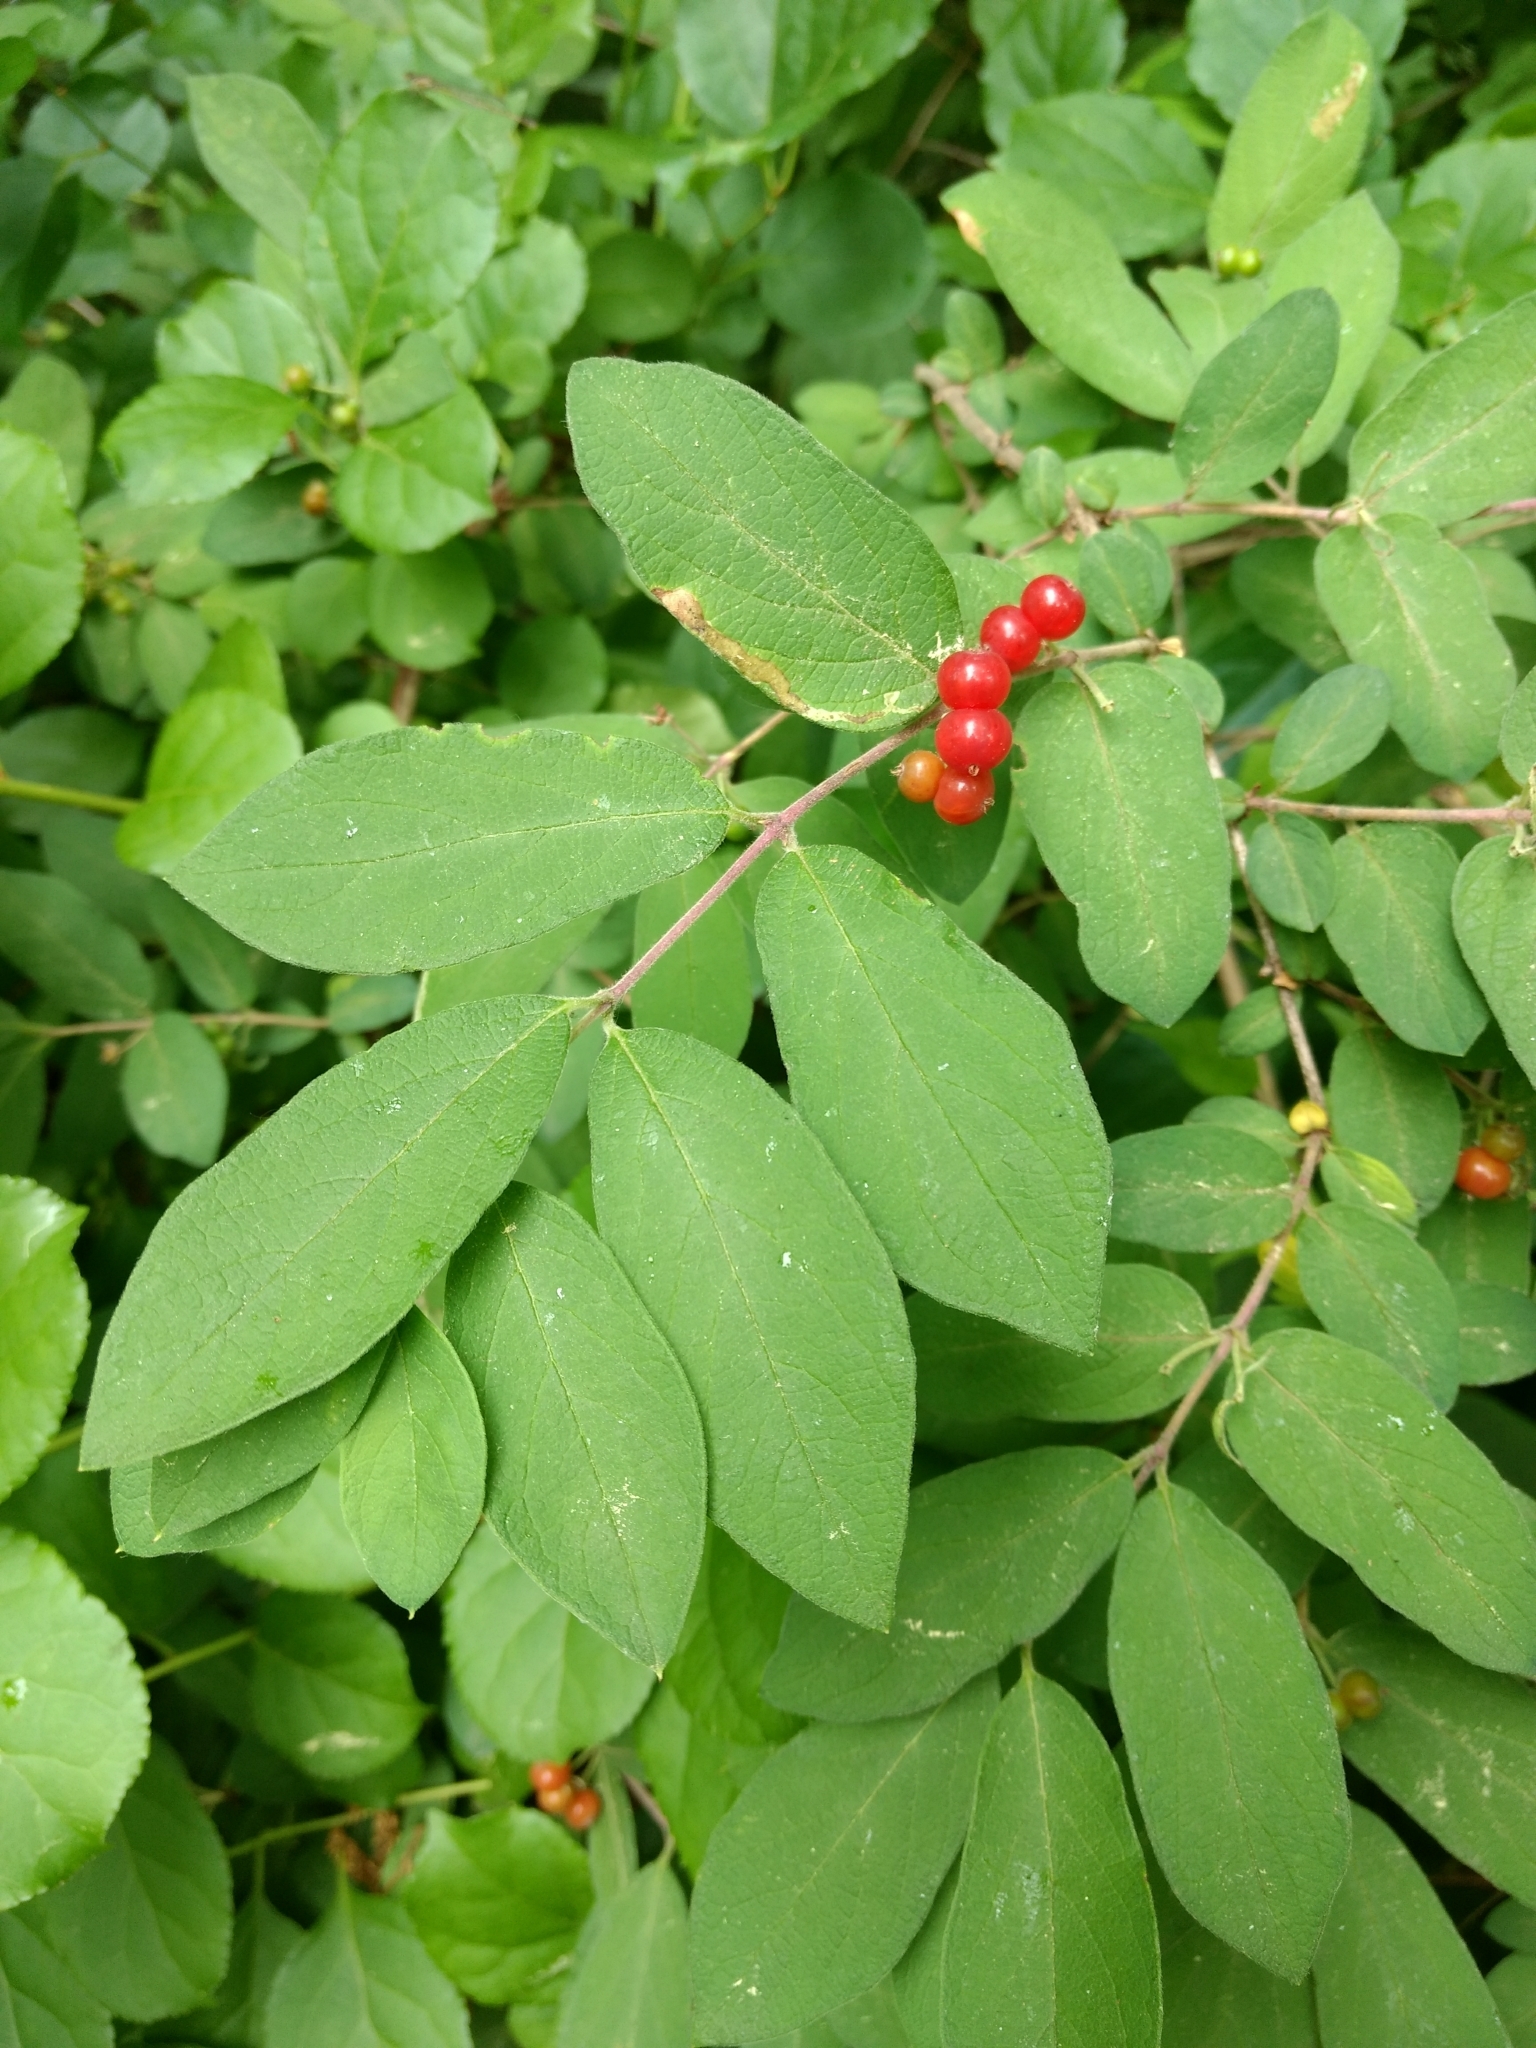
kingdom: Plantae
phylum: Tracheophyta
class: Magnoliopsida
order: Dipsacales
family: Caprifoliaceae
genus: Lonicera
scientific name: Lonicera
